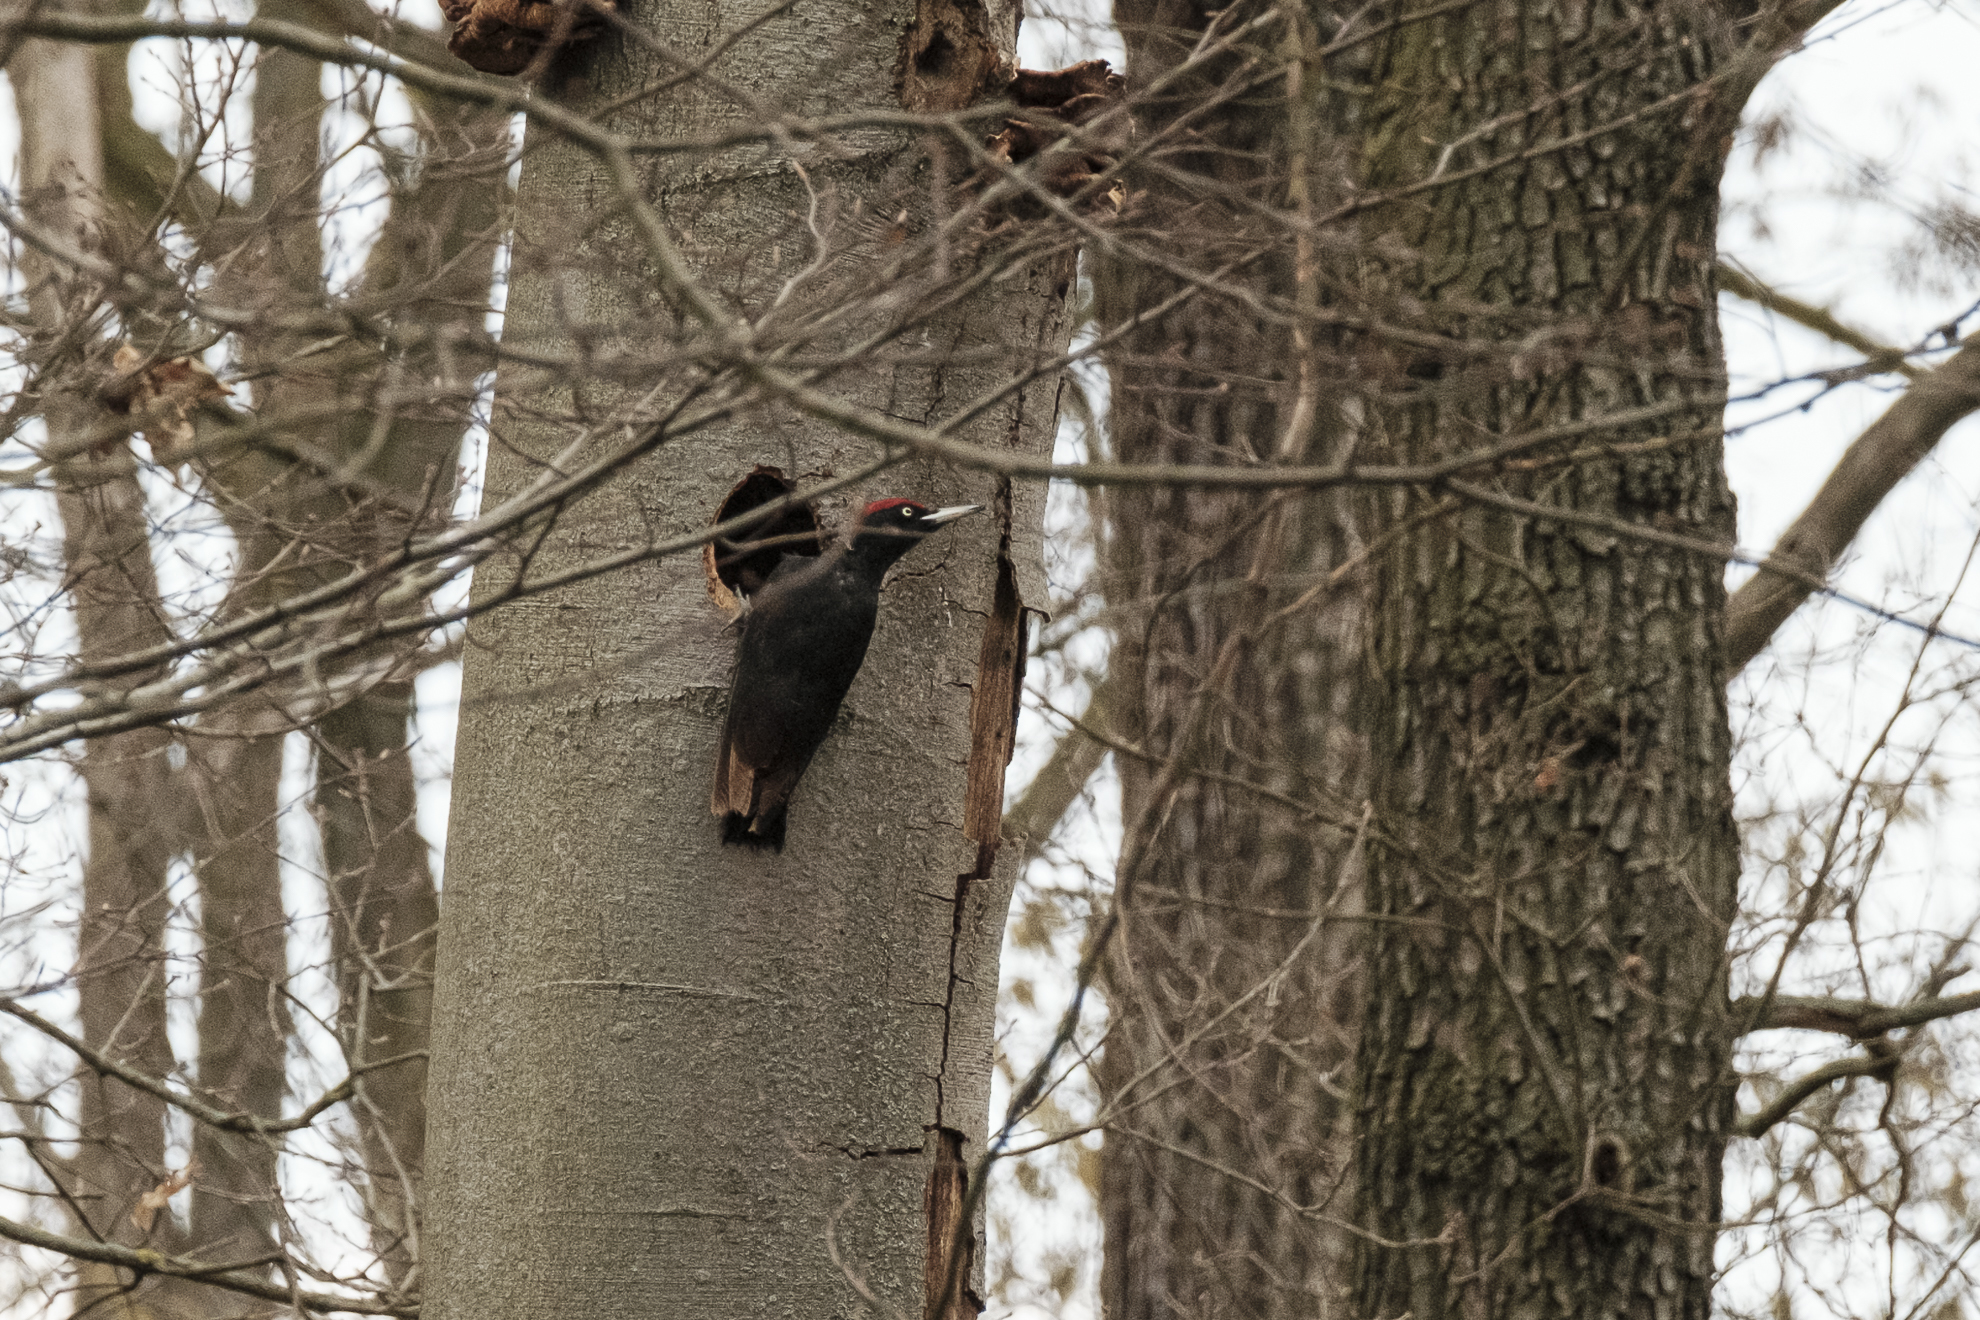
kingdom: Animalia
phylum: Chordata
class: Aves
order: Piciformes
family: Picidae
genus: Dryocopus
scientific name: Dryocopus martius
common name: Black woodpecker
